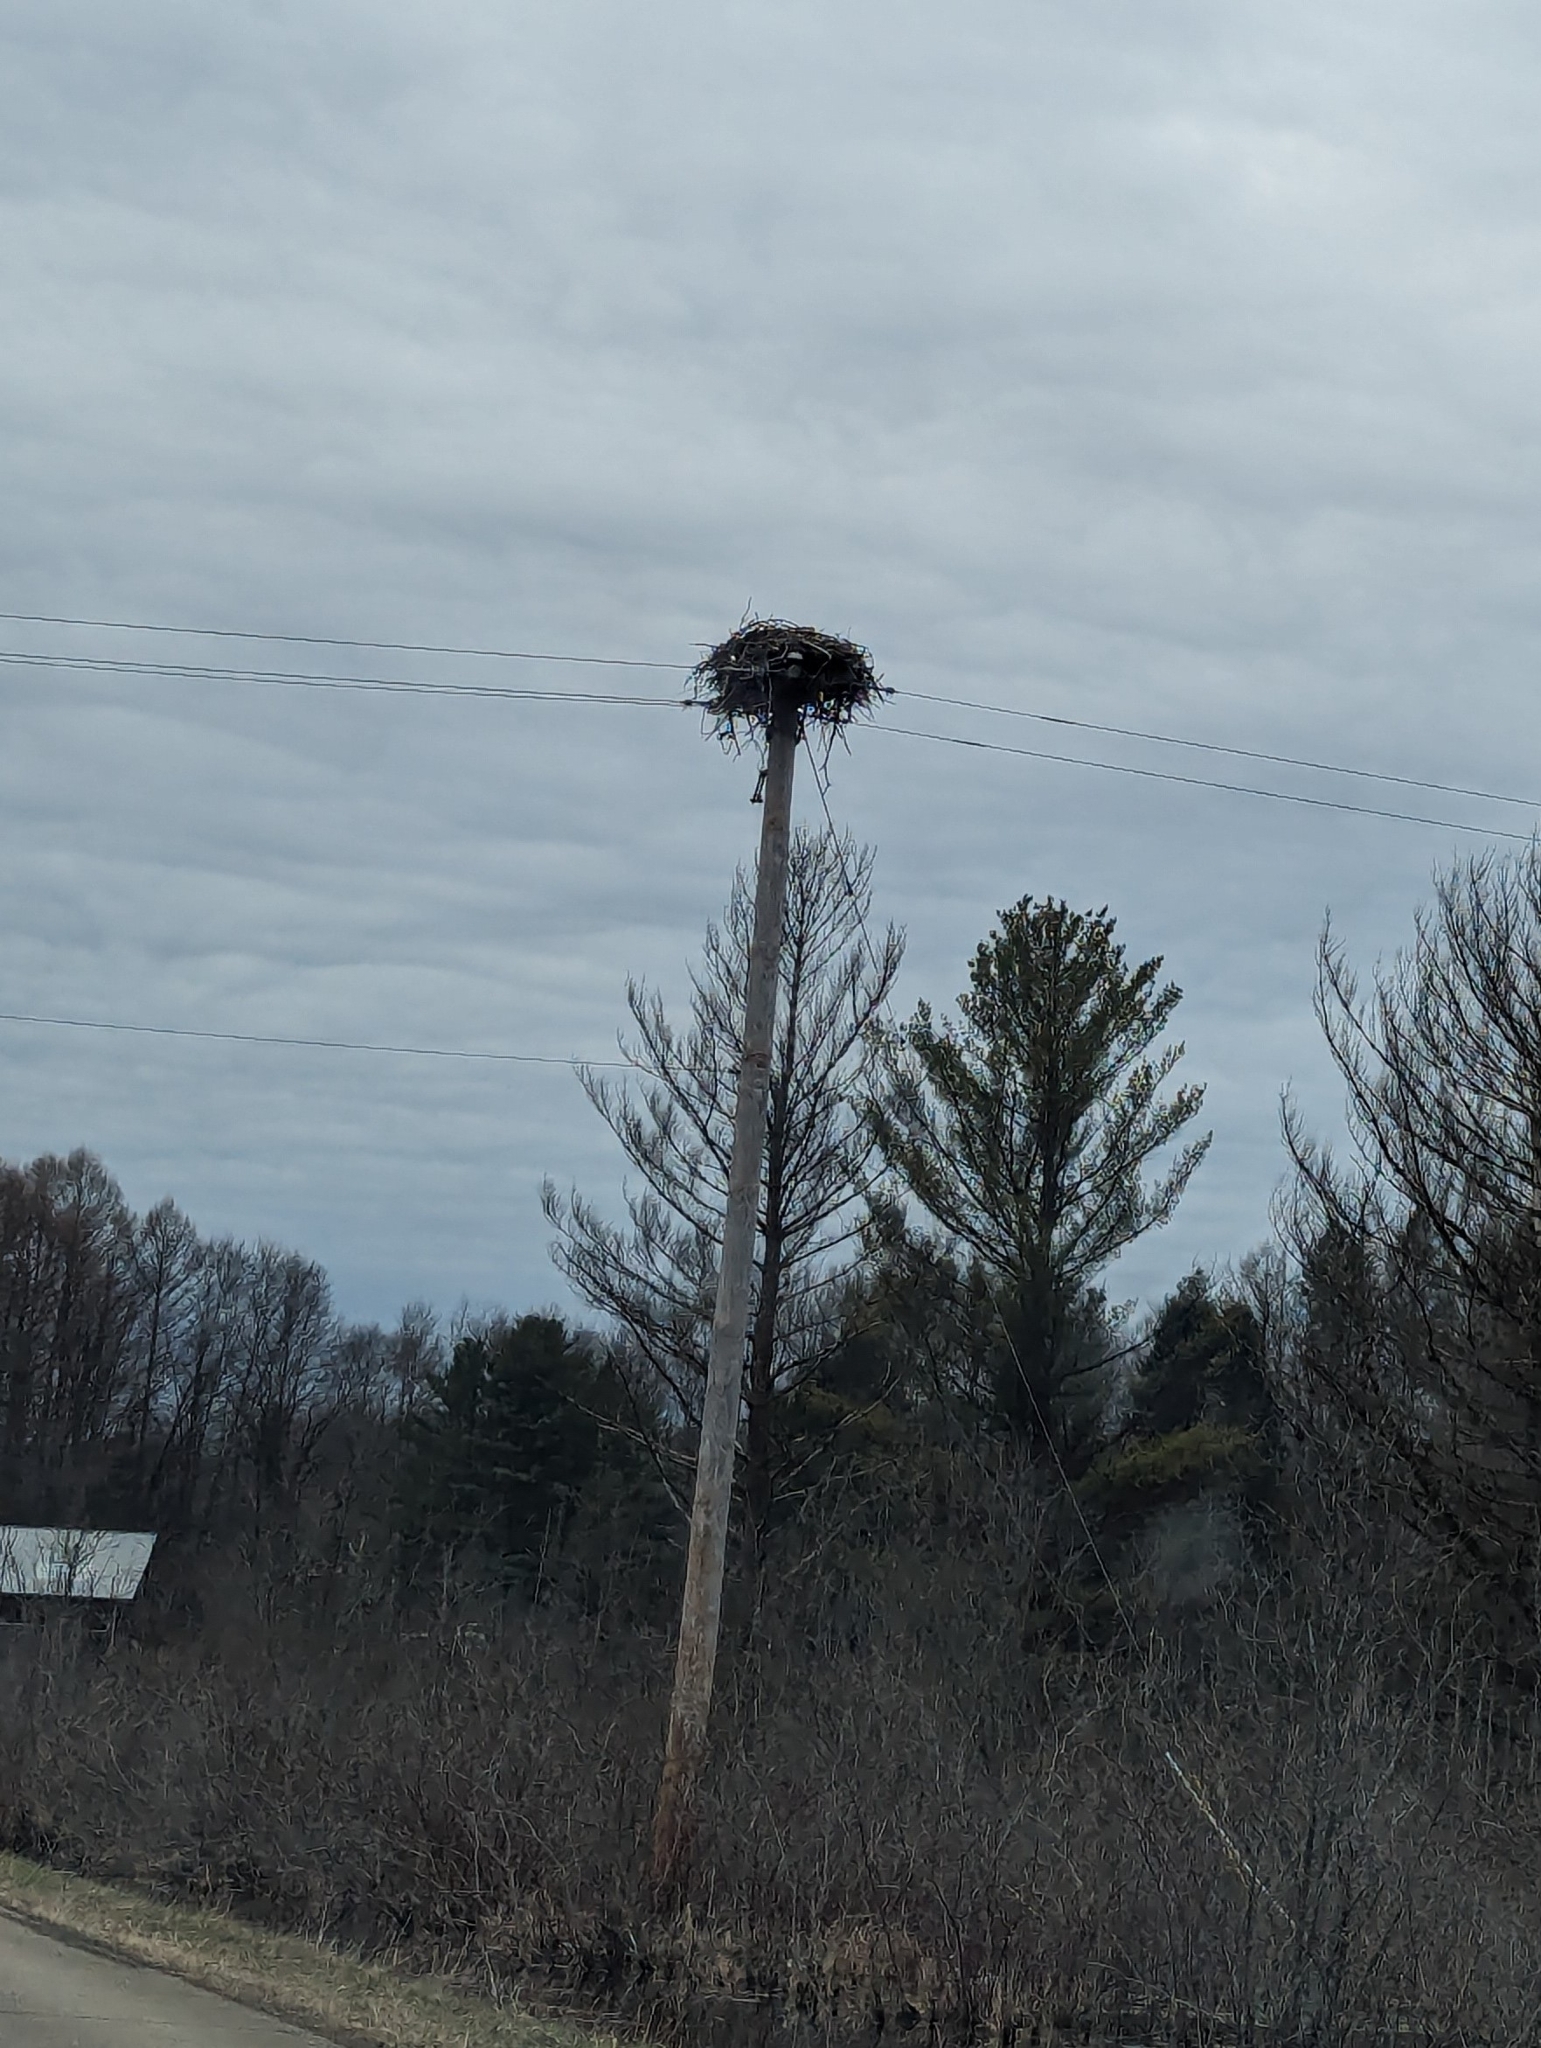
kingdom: Animalia
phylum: Chordata
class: Aves
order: Accipitriformes
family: Pandionidae
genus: Pandion
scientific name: Pandion haliaetus
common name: Osprey
